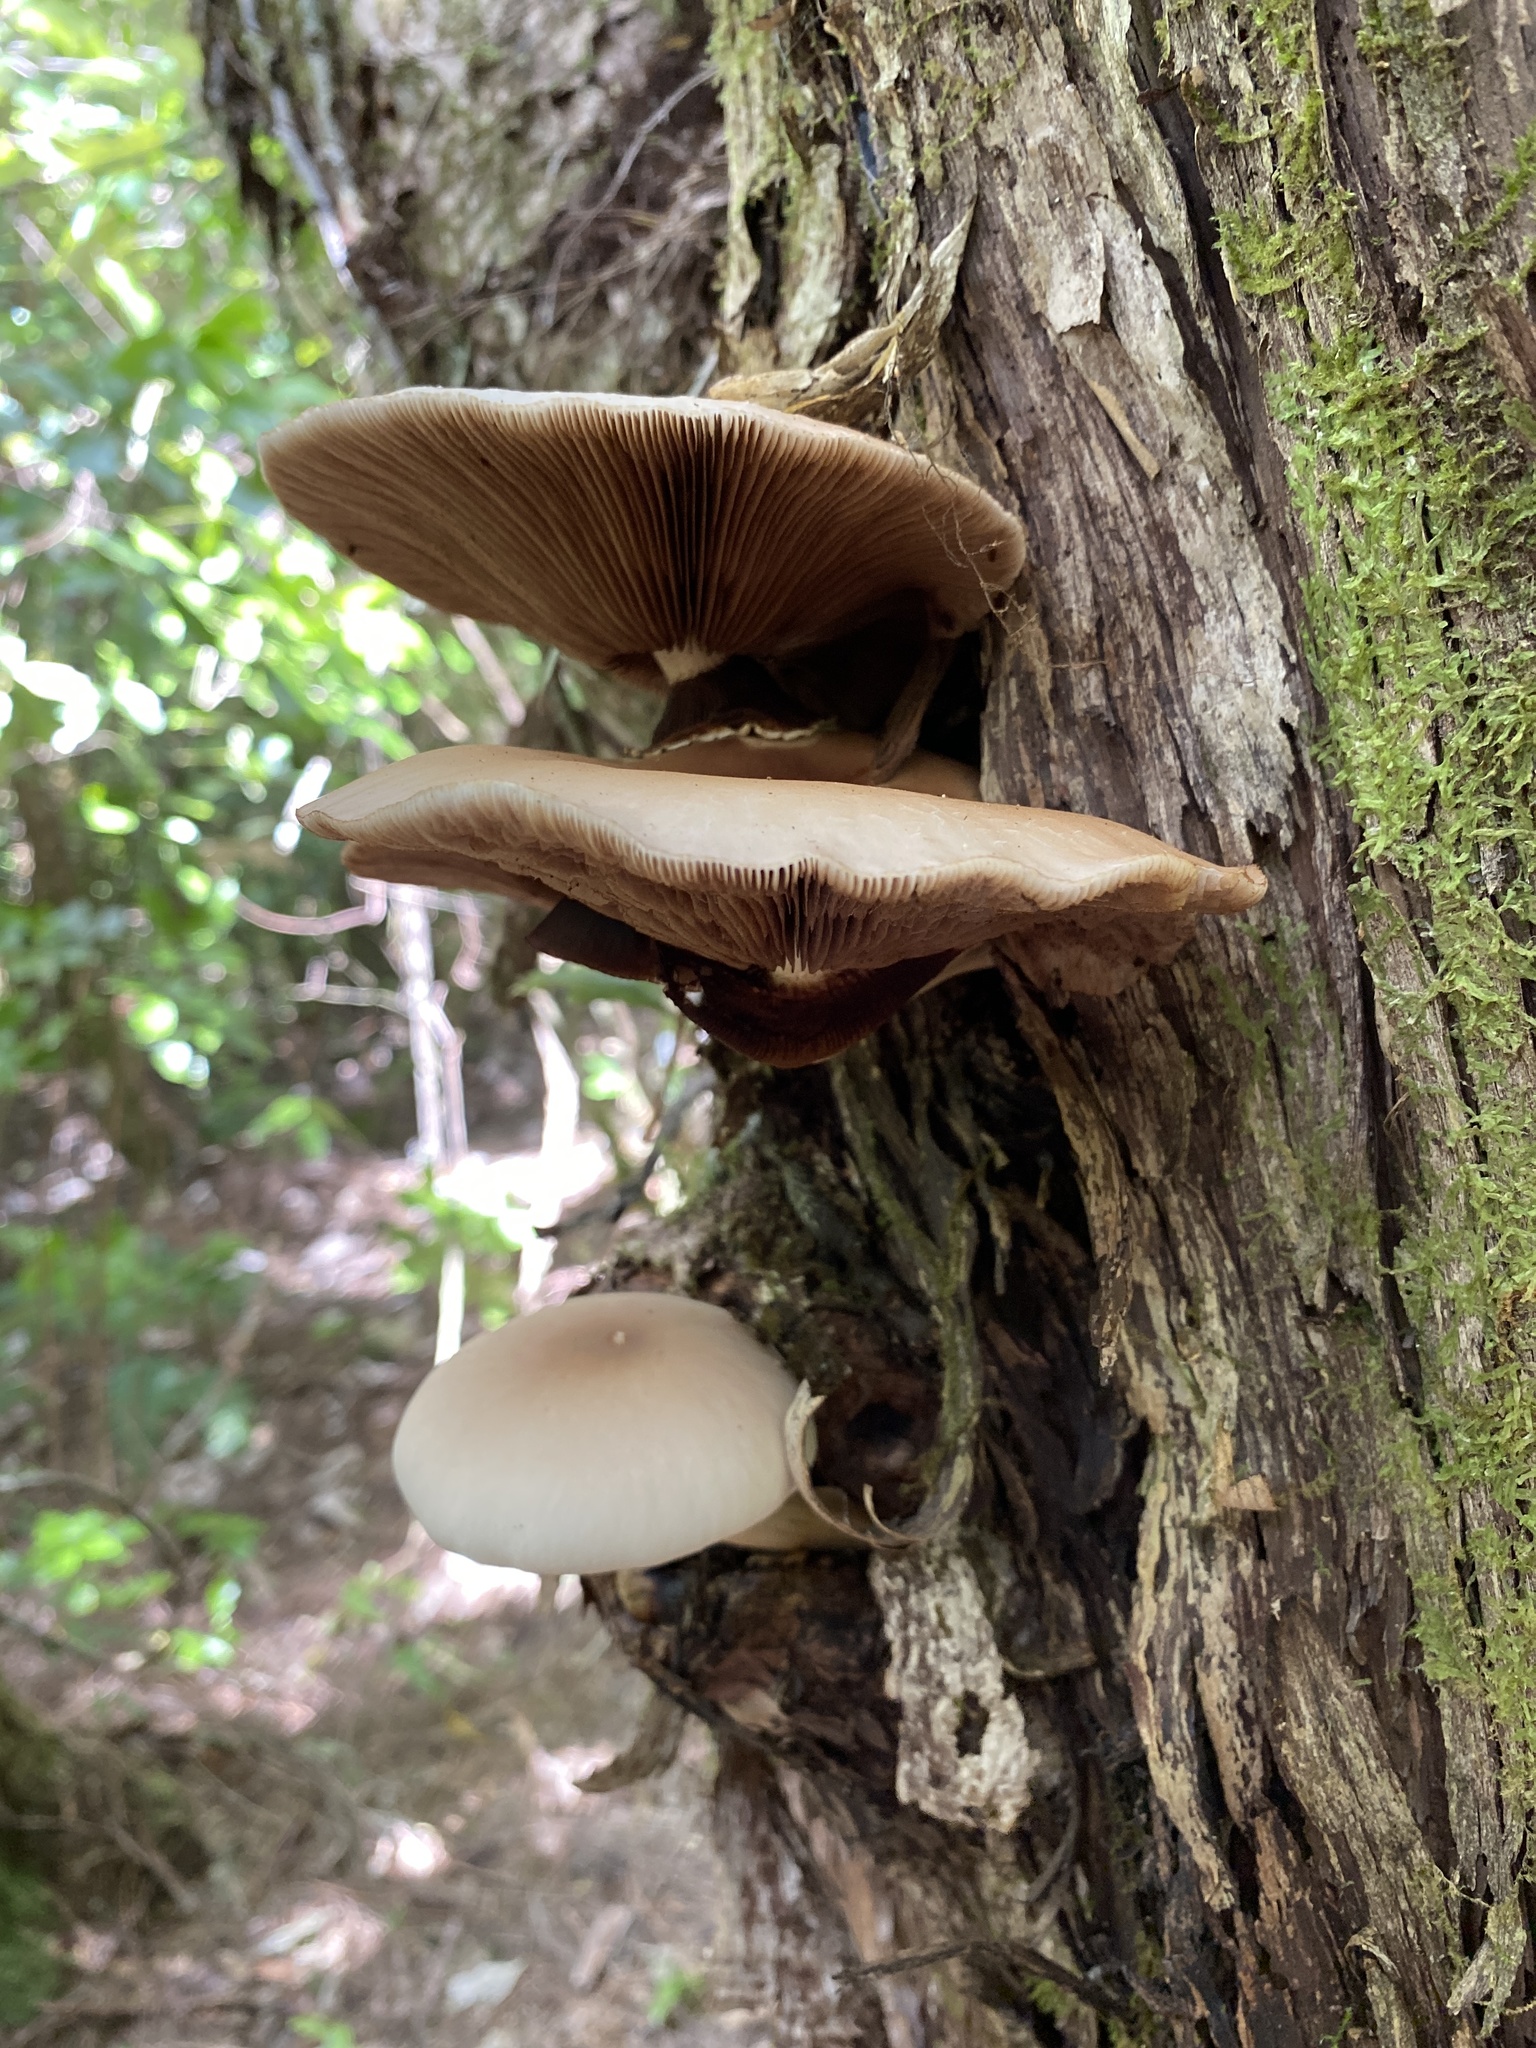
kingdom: Fungi
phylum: Basidiomycota
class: Agaricomycetes
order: Agaricales
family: Tubariaceae
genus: Cyclocybe
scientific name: Cyclocybe parasitica
